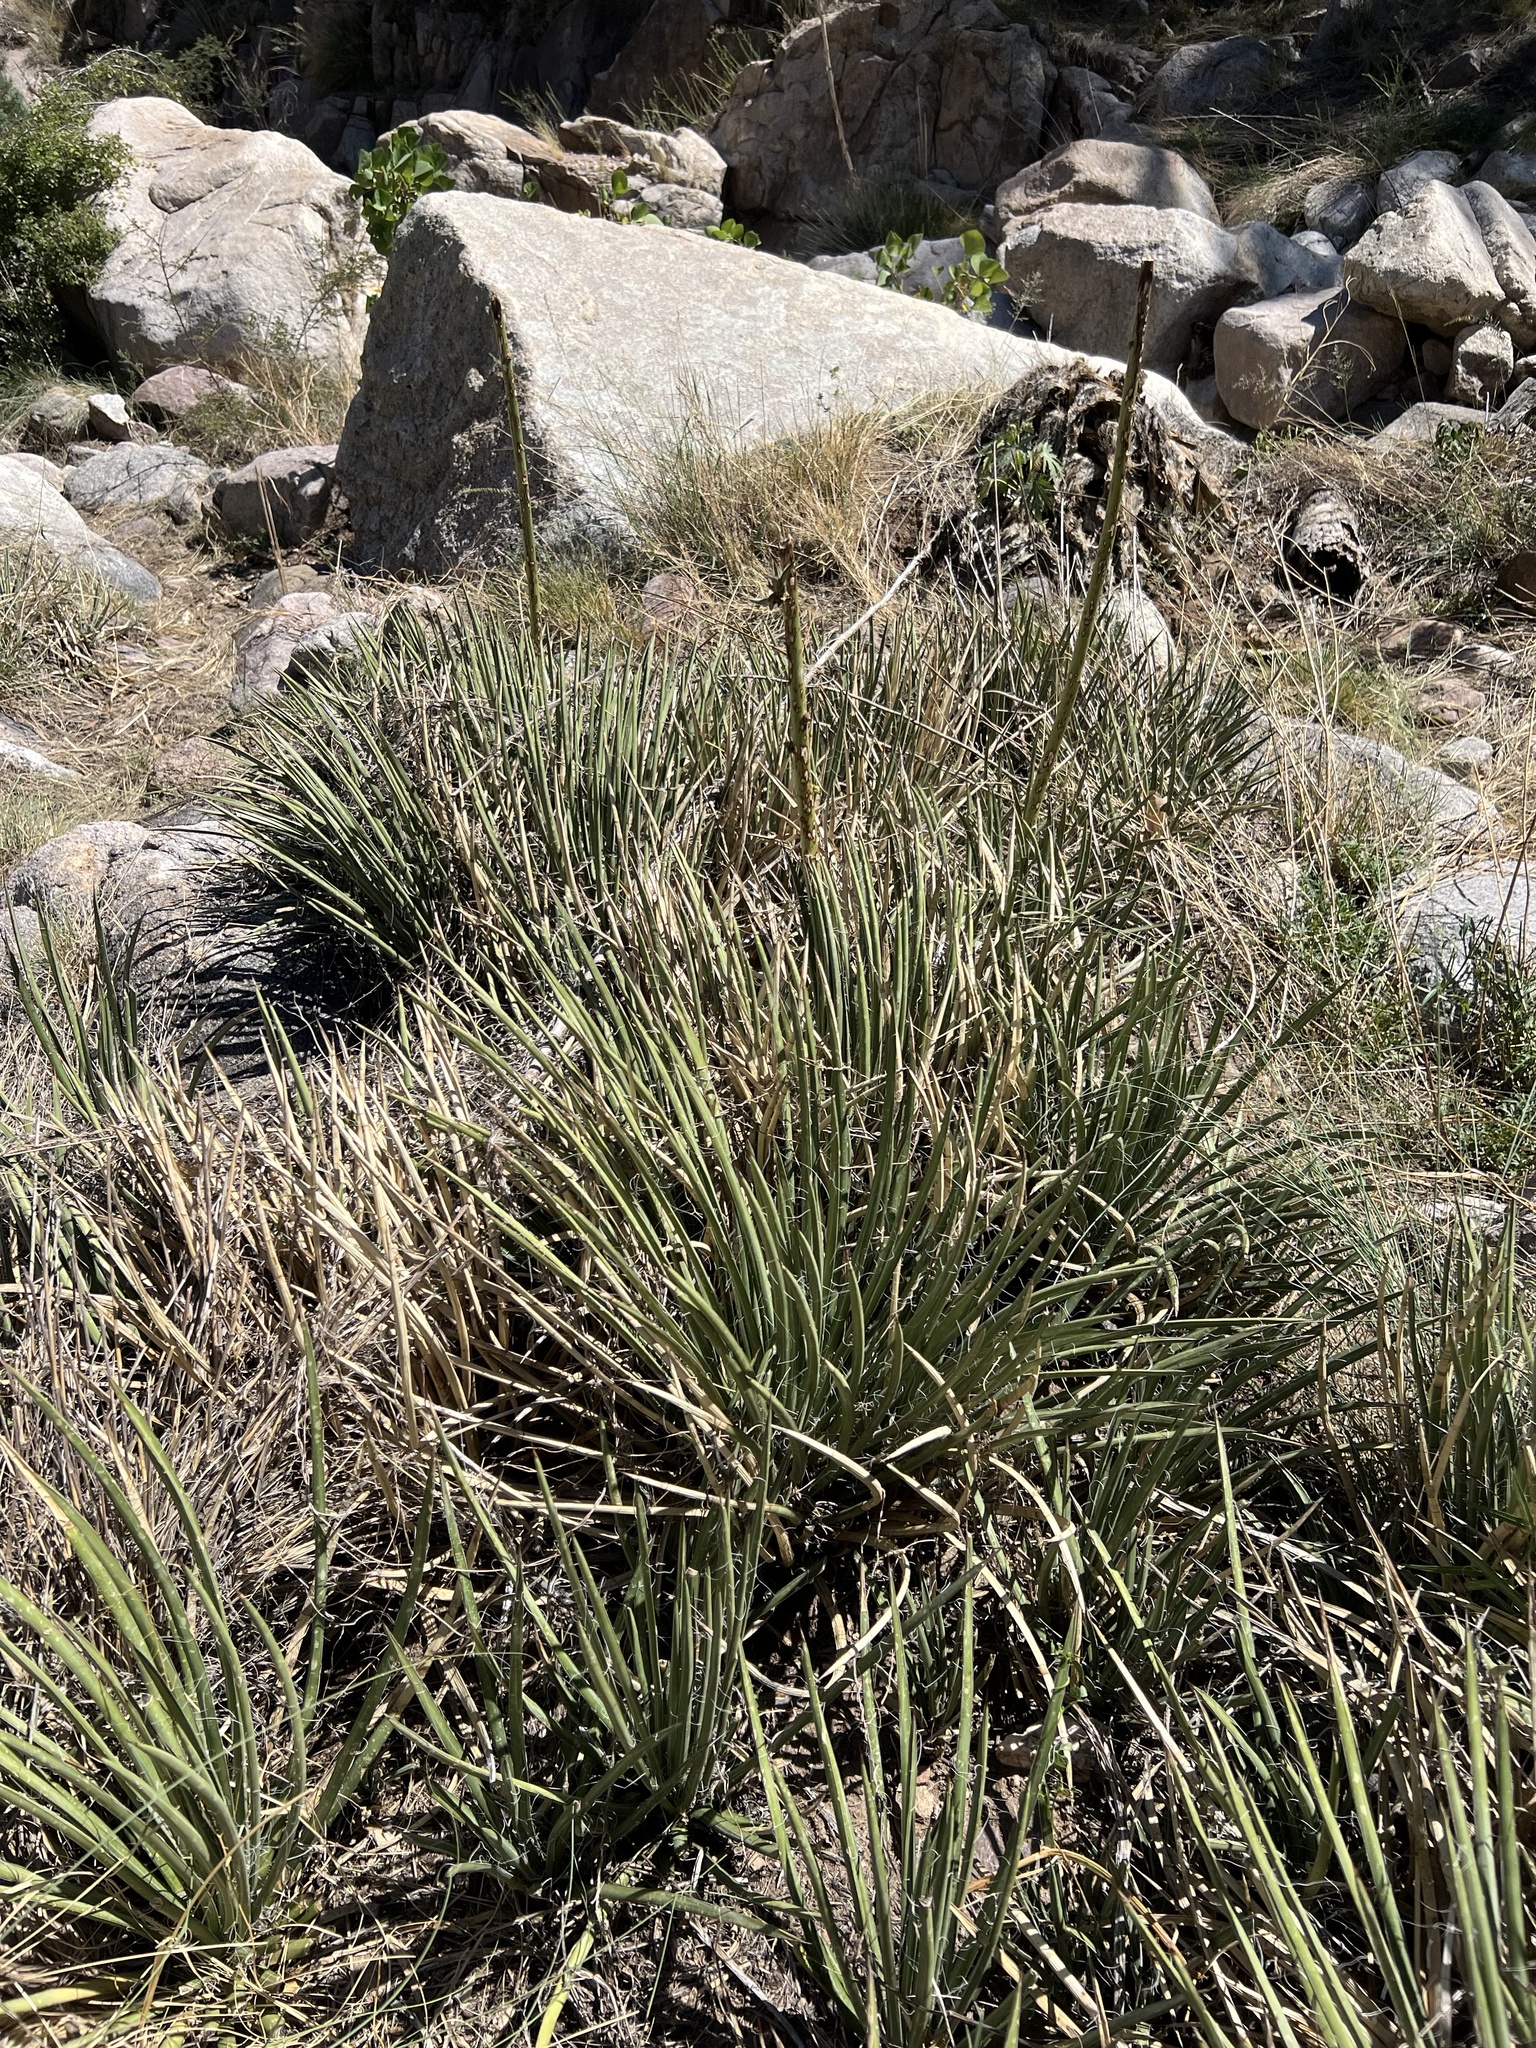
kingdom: Plantae
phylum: Tracheophyta
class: Liliopsida
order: Asparagales
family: Asparagaceae
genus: Agave
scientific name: Agave schottii
